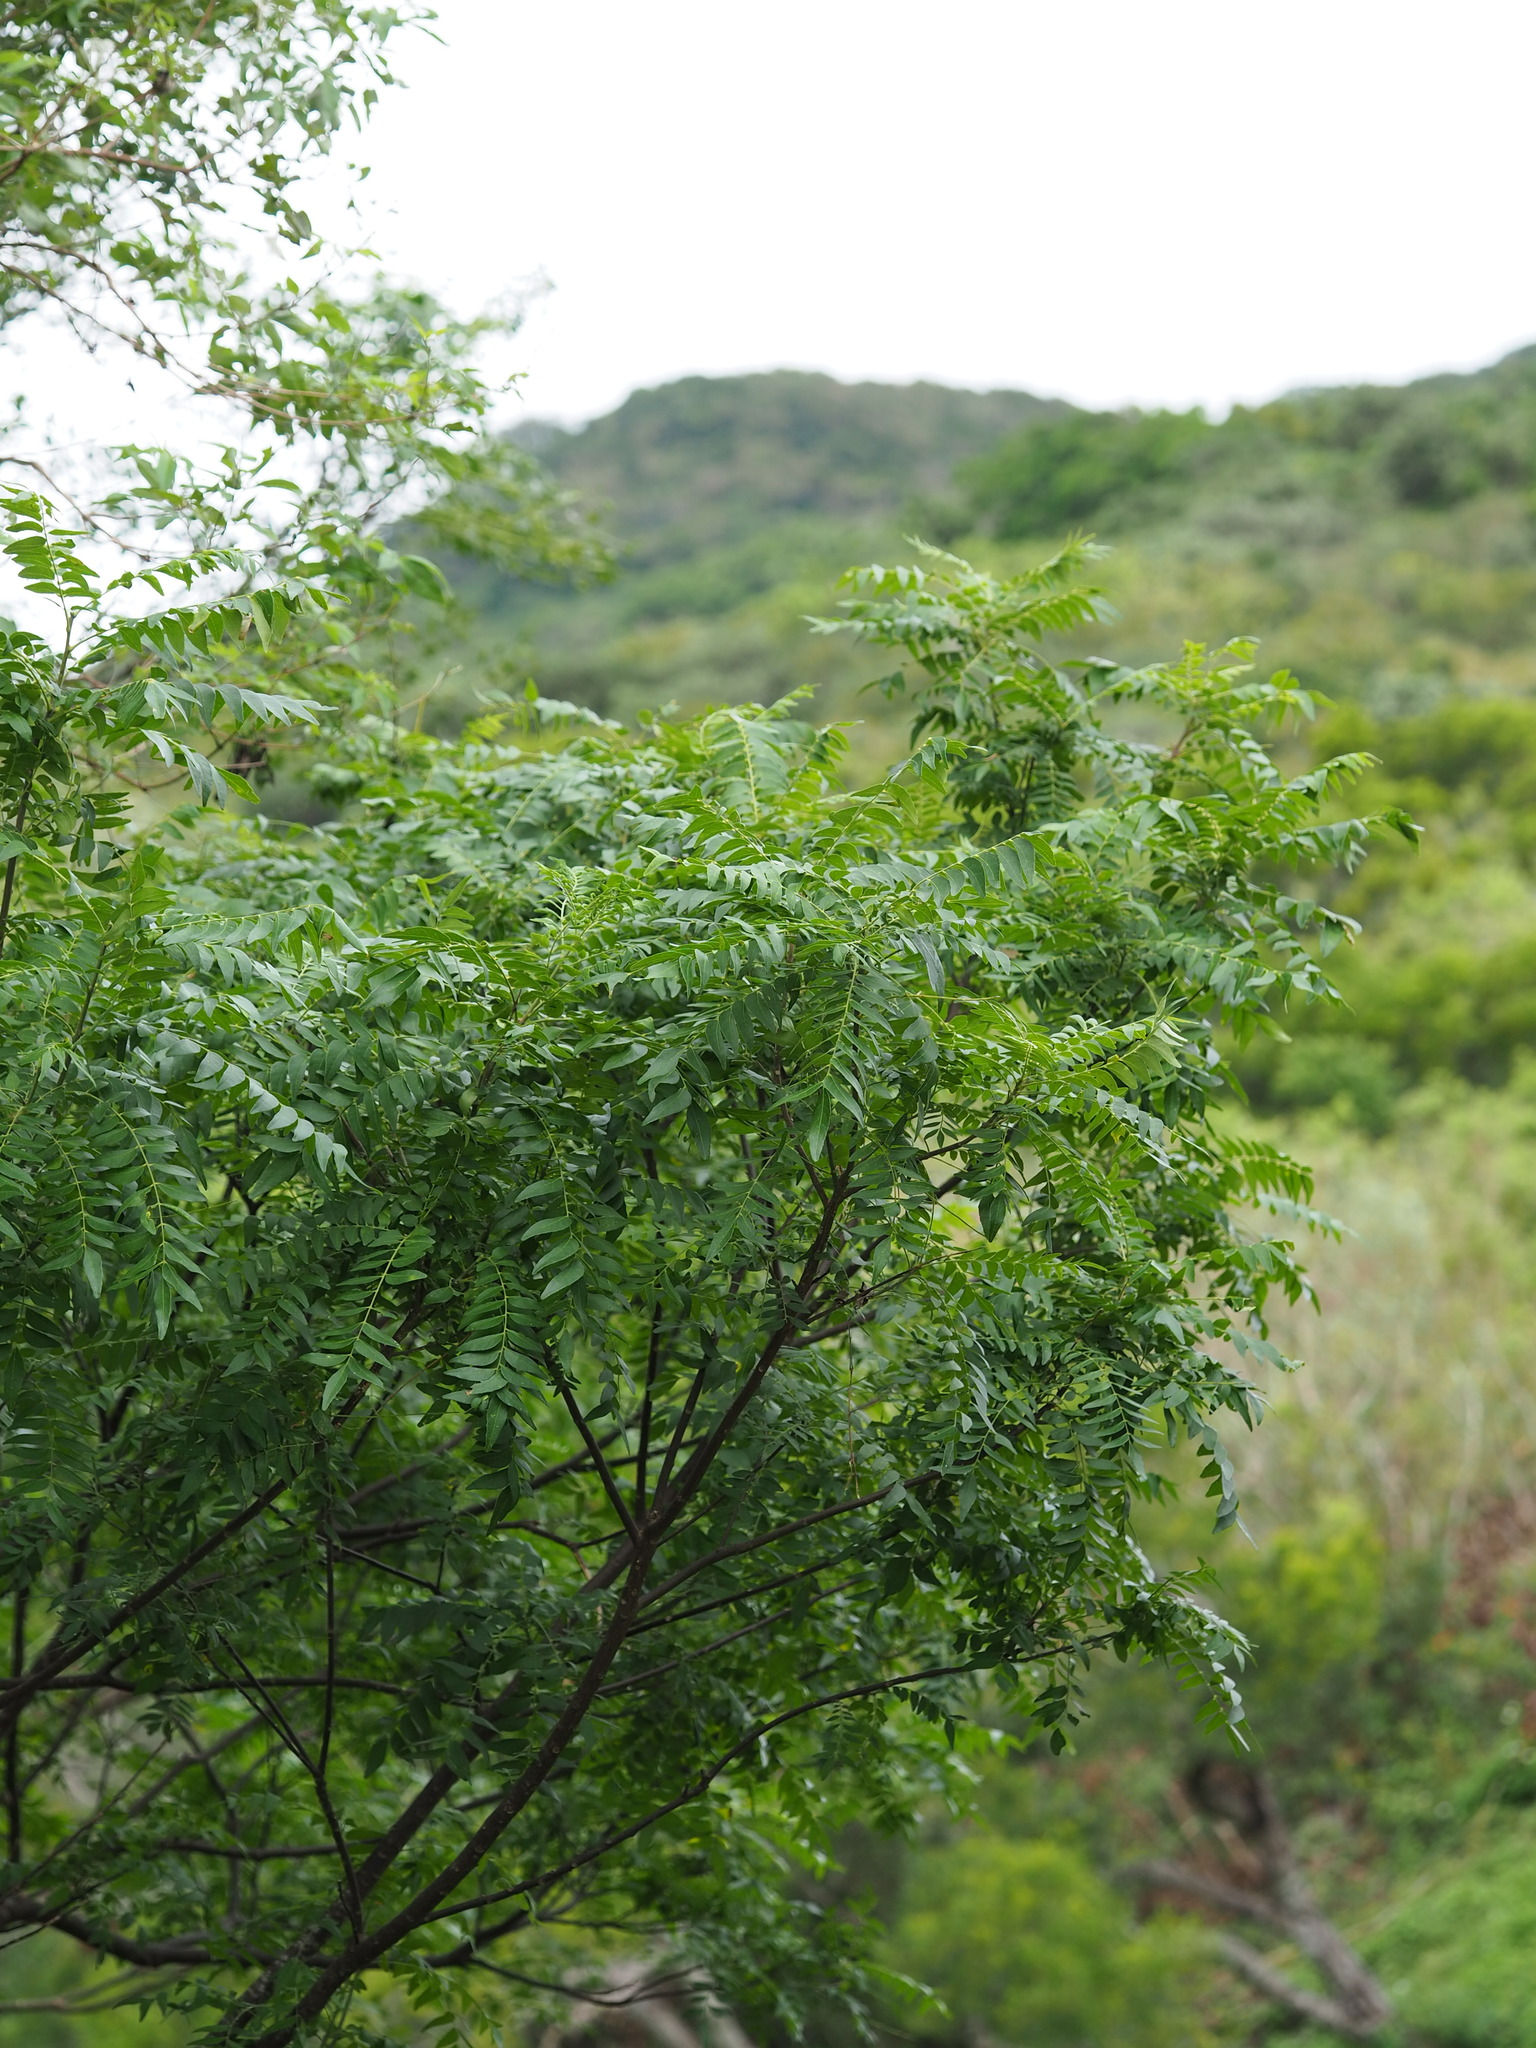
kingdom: Plantae
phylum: Tracheophyta
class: Magnoliopsida
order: Sapindales
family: Rutaceae
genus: Clausena
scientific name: Clausena excavata
